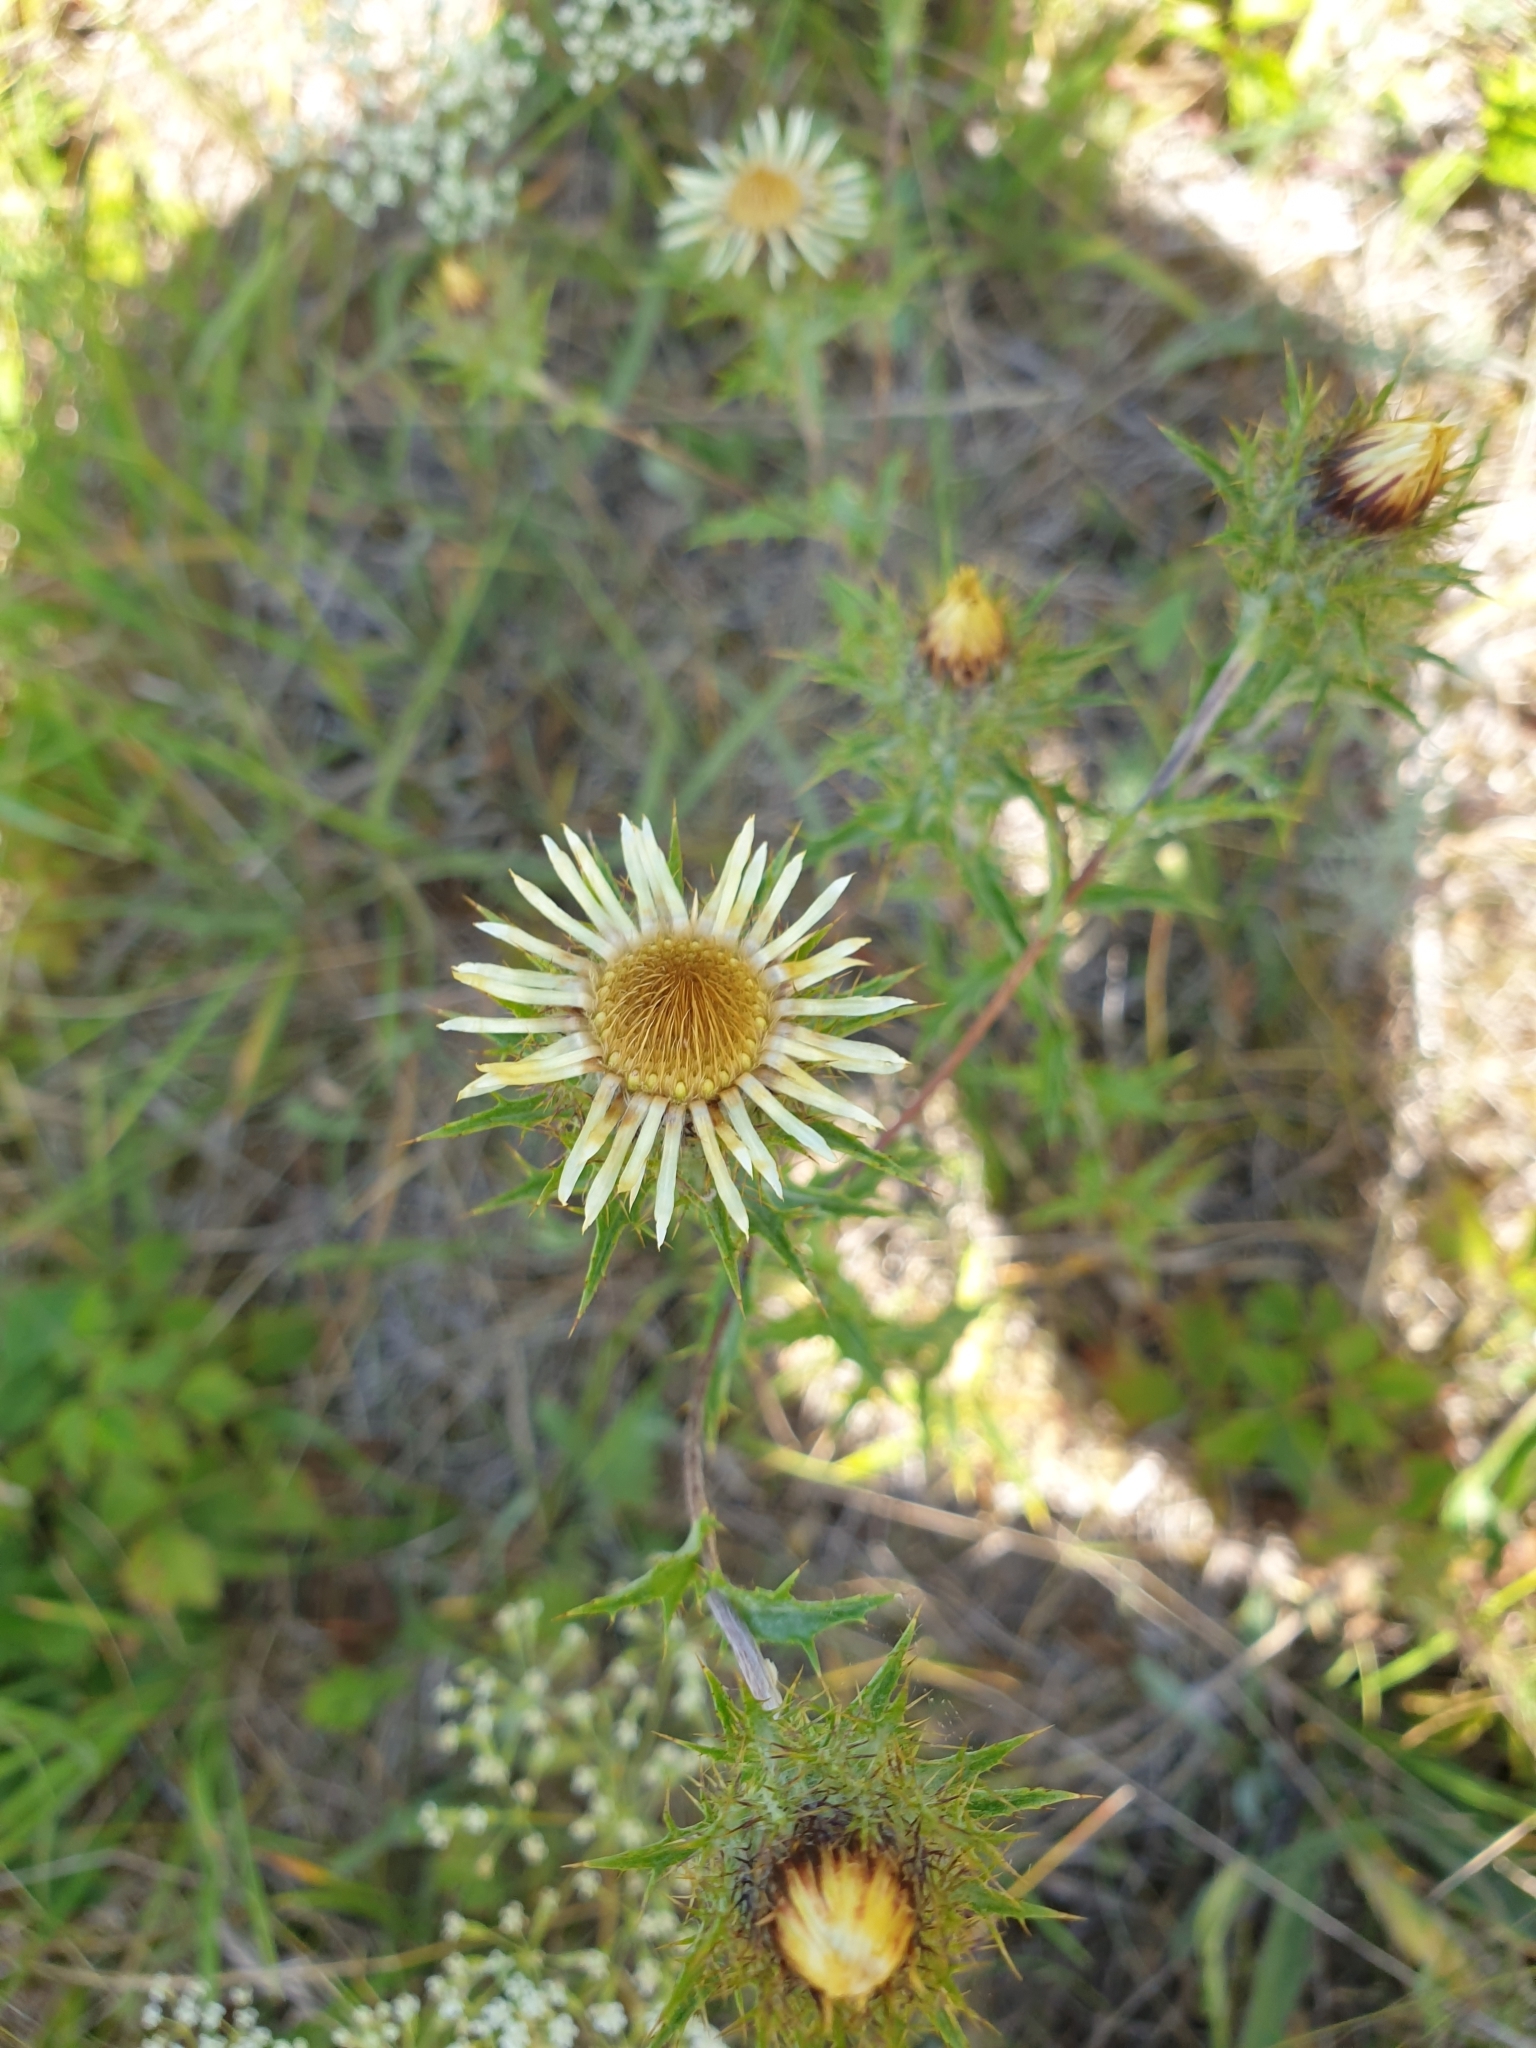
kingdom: Plantae
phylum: Tracheophyta
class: Magnoliopsida
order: Asterales
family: Asteraceae
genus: Carlina
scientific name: Carlina vulgaris
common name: Carline thistle
